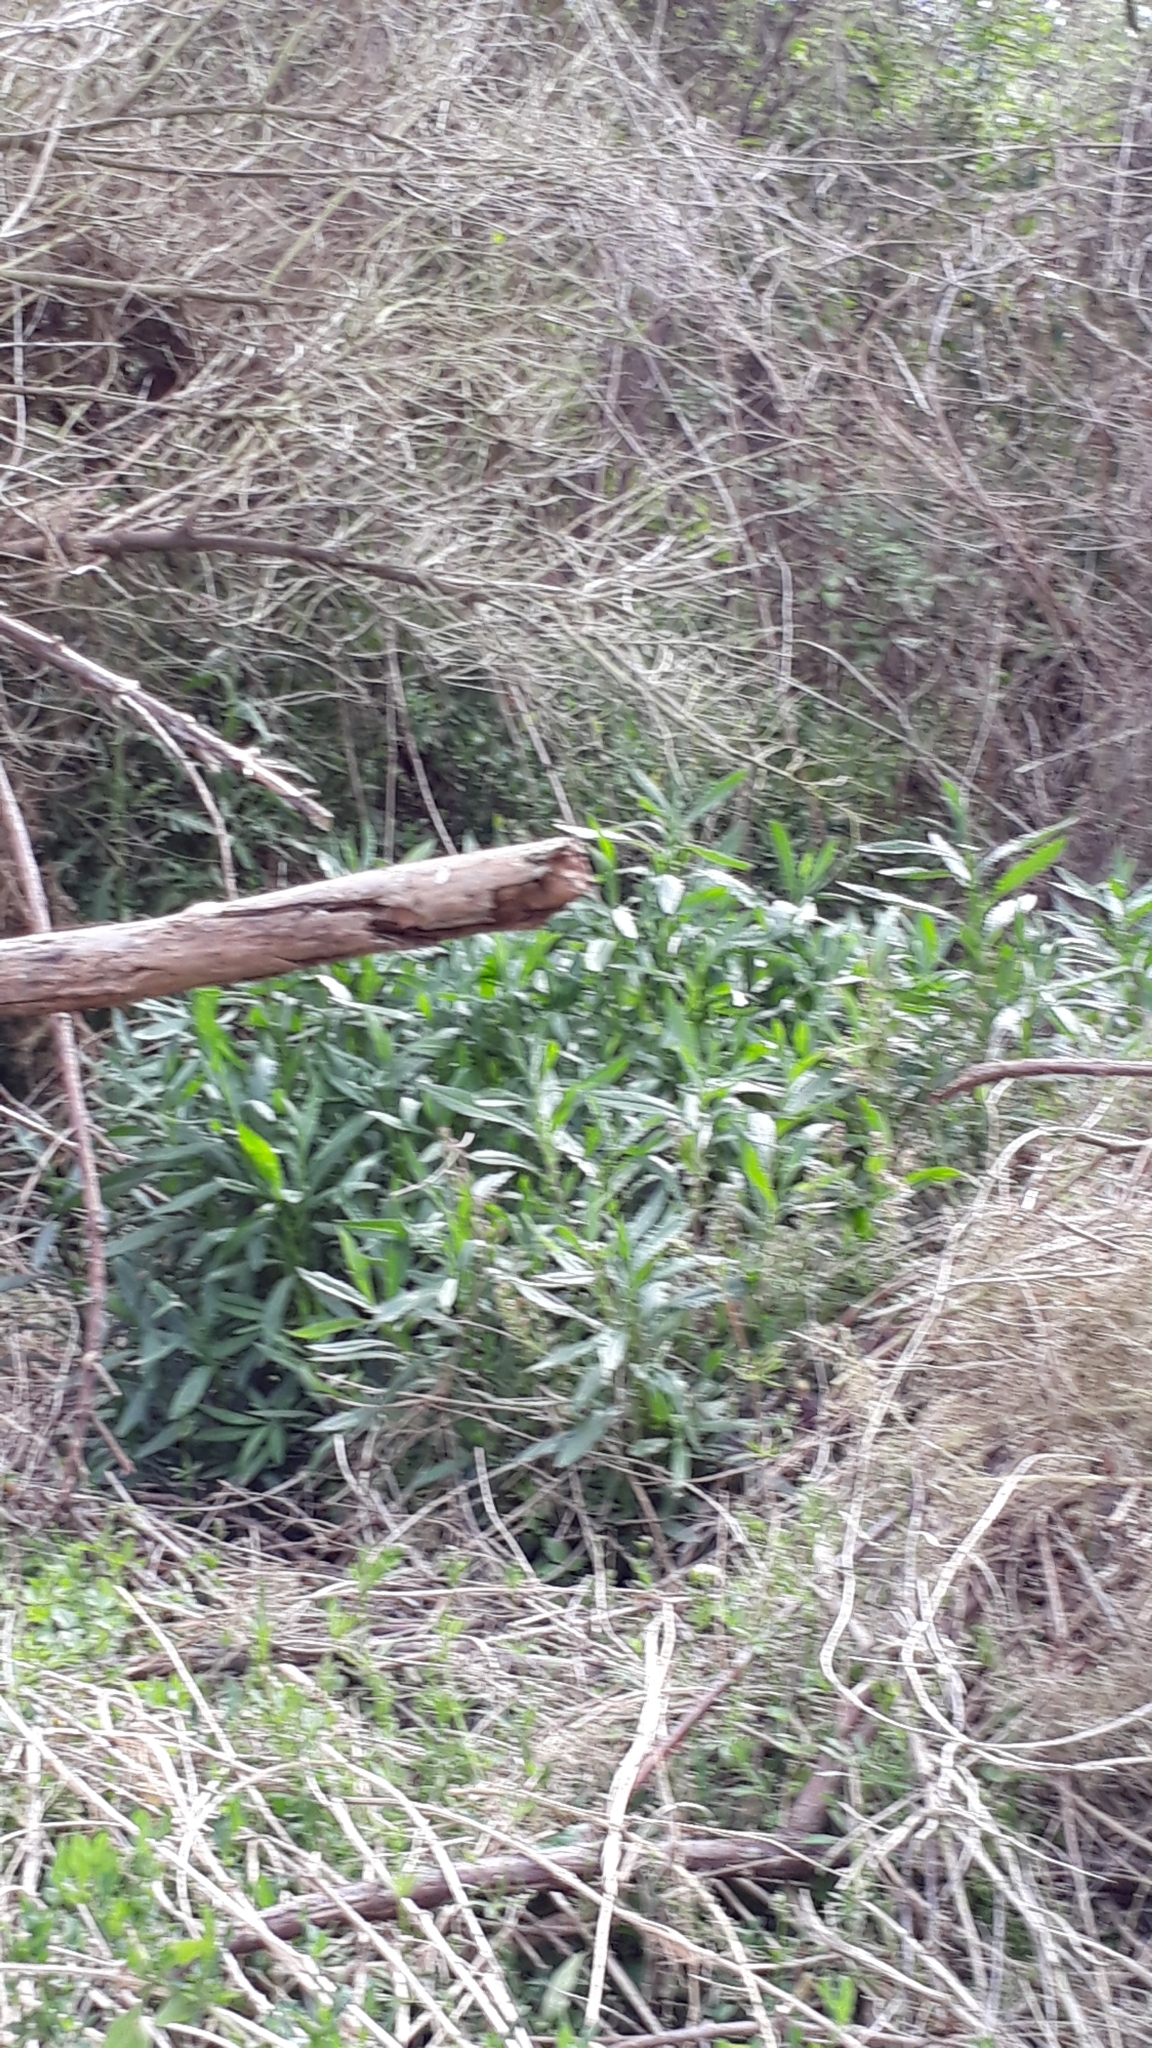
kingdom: Plantae
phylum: Tracheophyta
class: Magnoliopsida
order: Asterales
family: Asteraceae
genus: Senecio
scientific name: Senecio minimus
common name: Toothed fireweed
